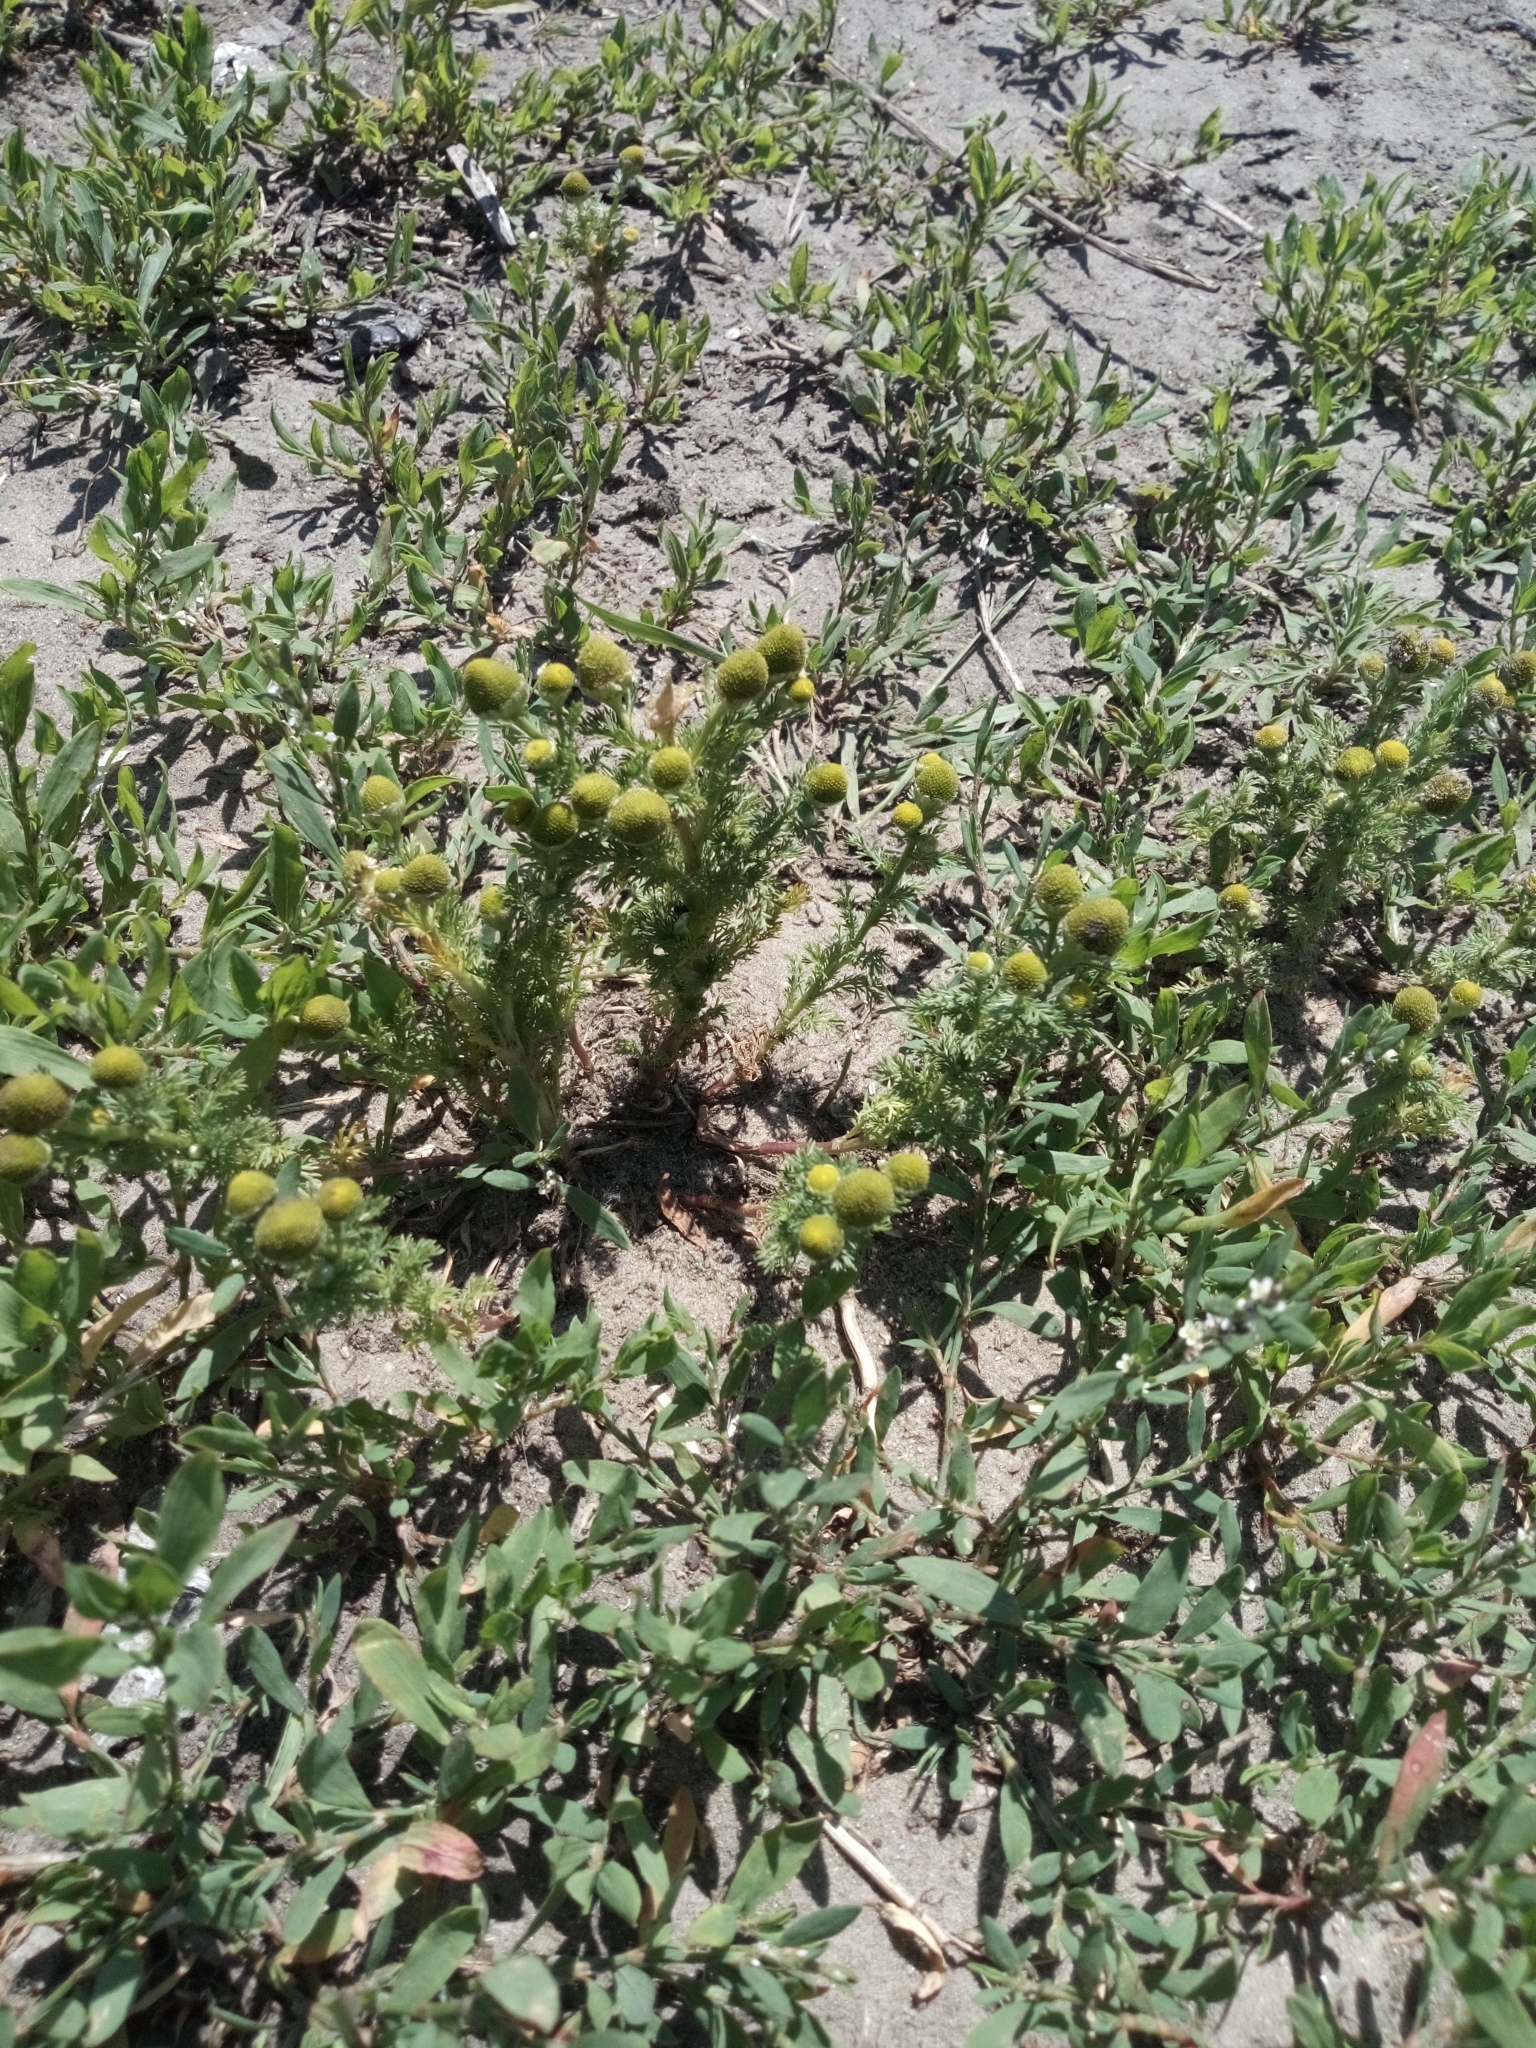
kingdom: Plantae
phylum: Tracheophyta
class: Magnoliopsida
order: Asterales
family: Asteraceae
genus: Matricaria
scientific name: Matricaria discoidea
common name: Disc mayweed
